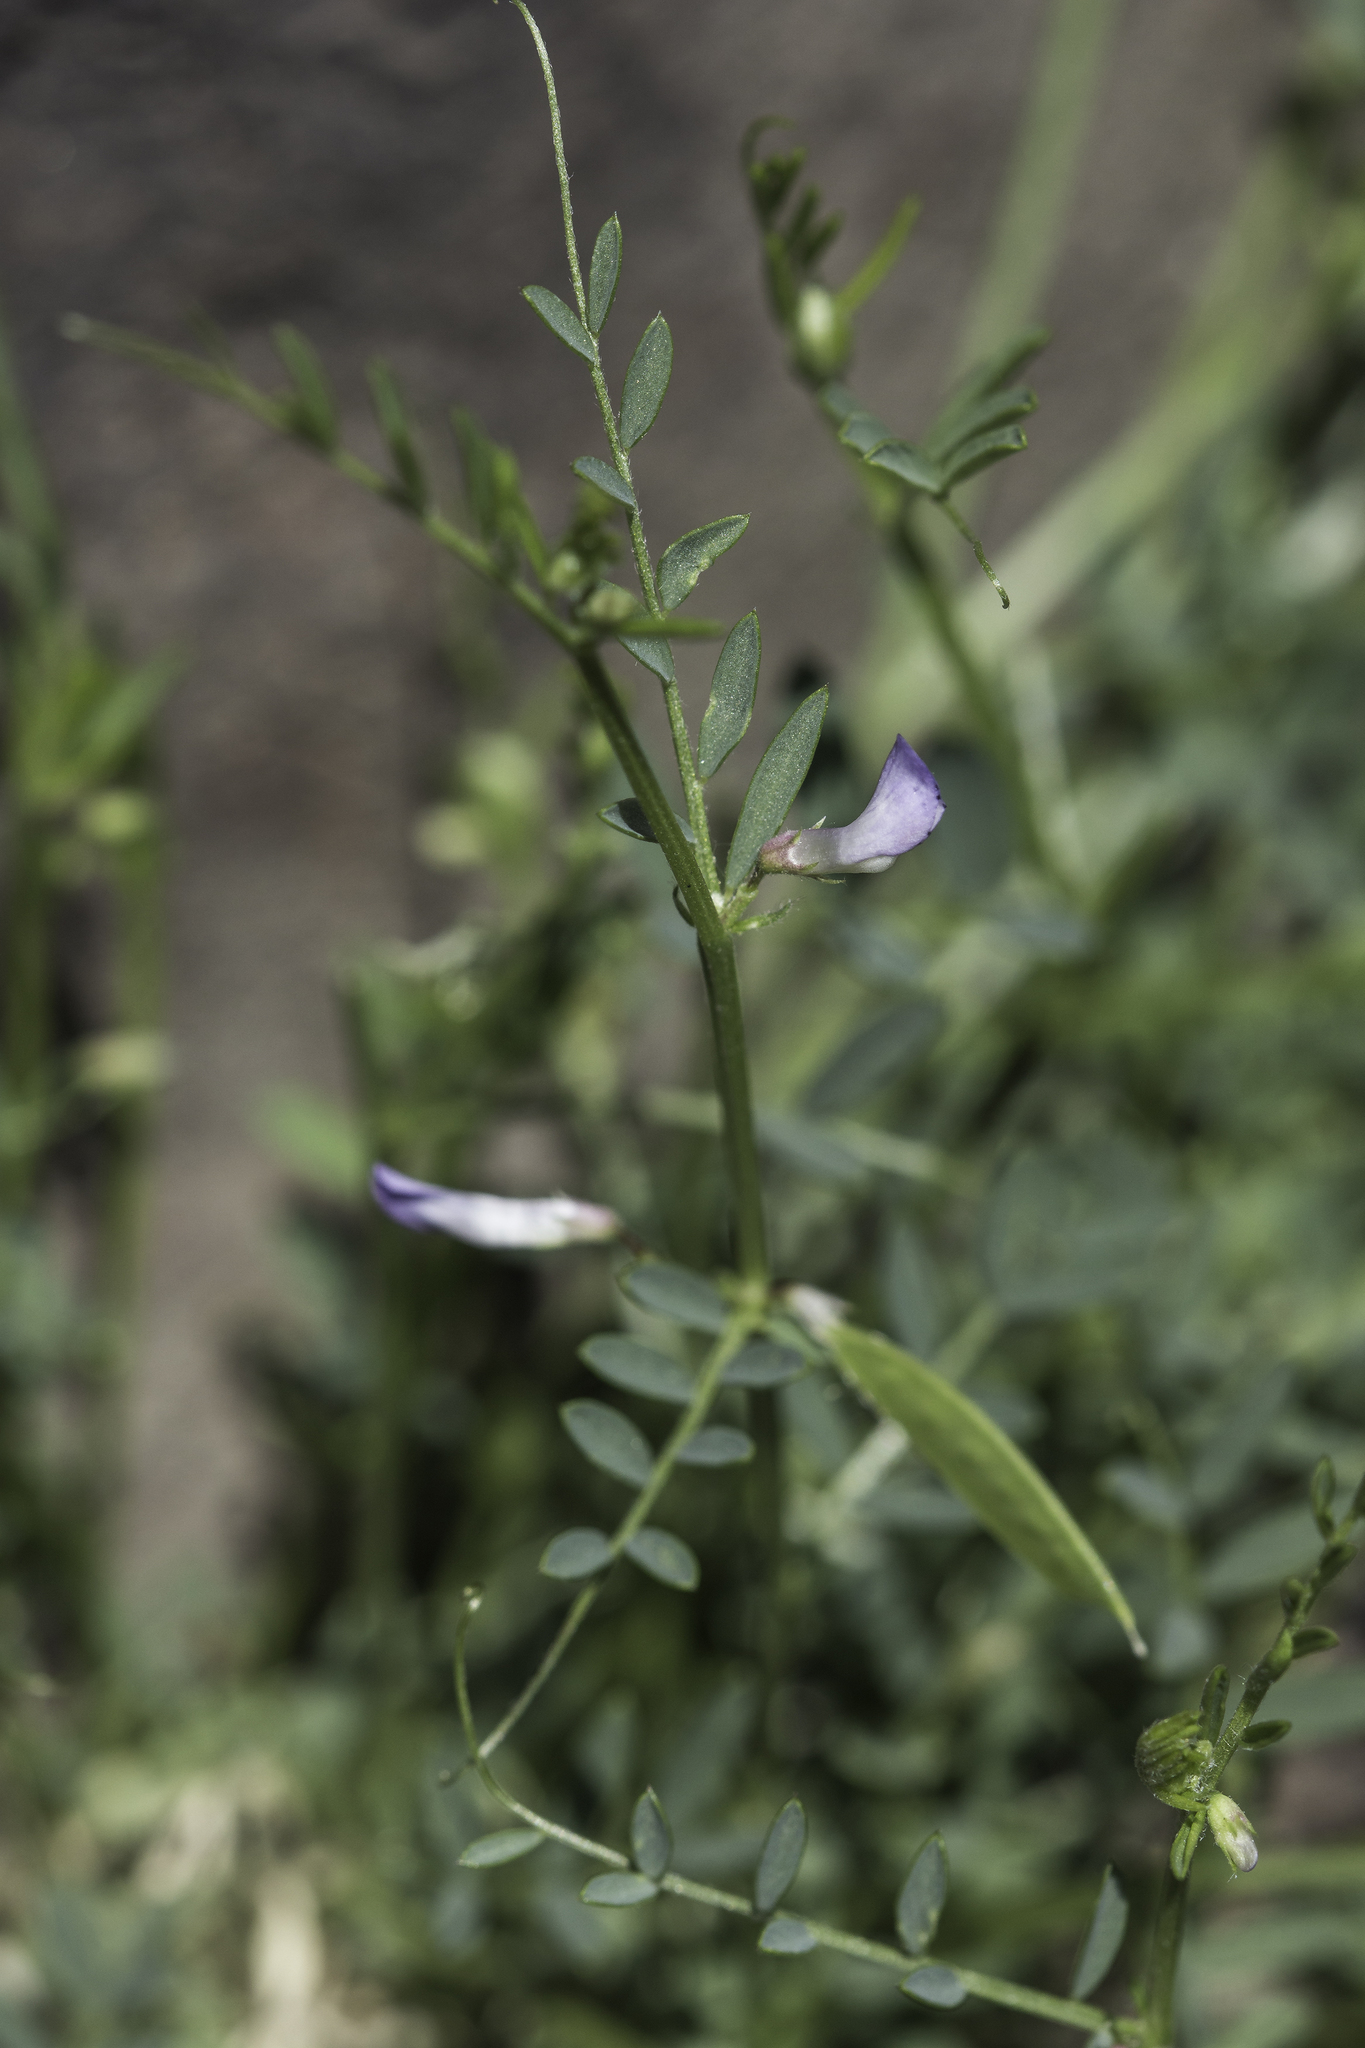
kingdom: Plantae
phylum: Tracheophyta
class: Magnoliopsida
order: Fabales
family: Fabaceae
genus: Vicia
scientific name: Vicia ludoviciana
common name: Louisiana vetch
